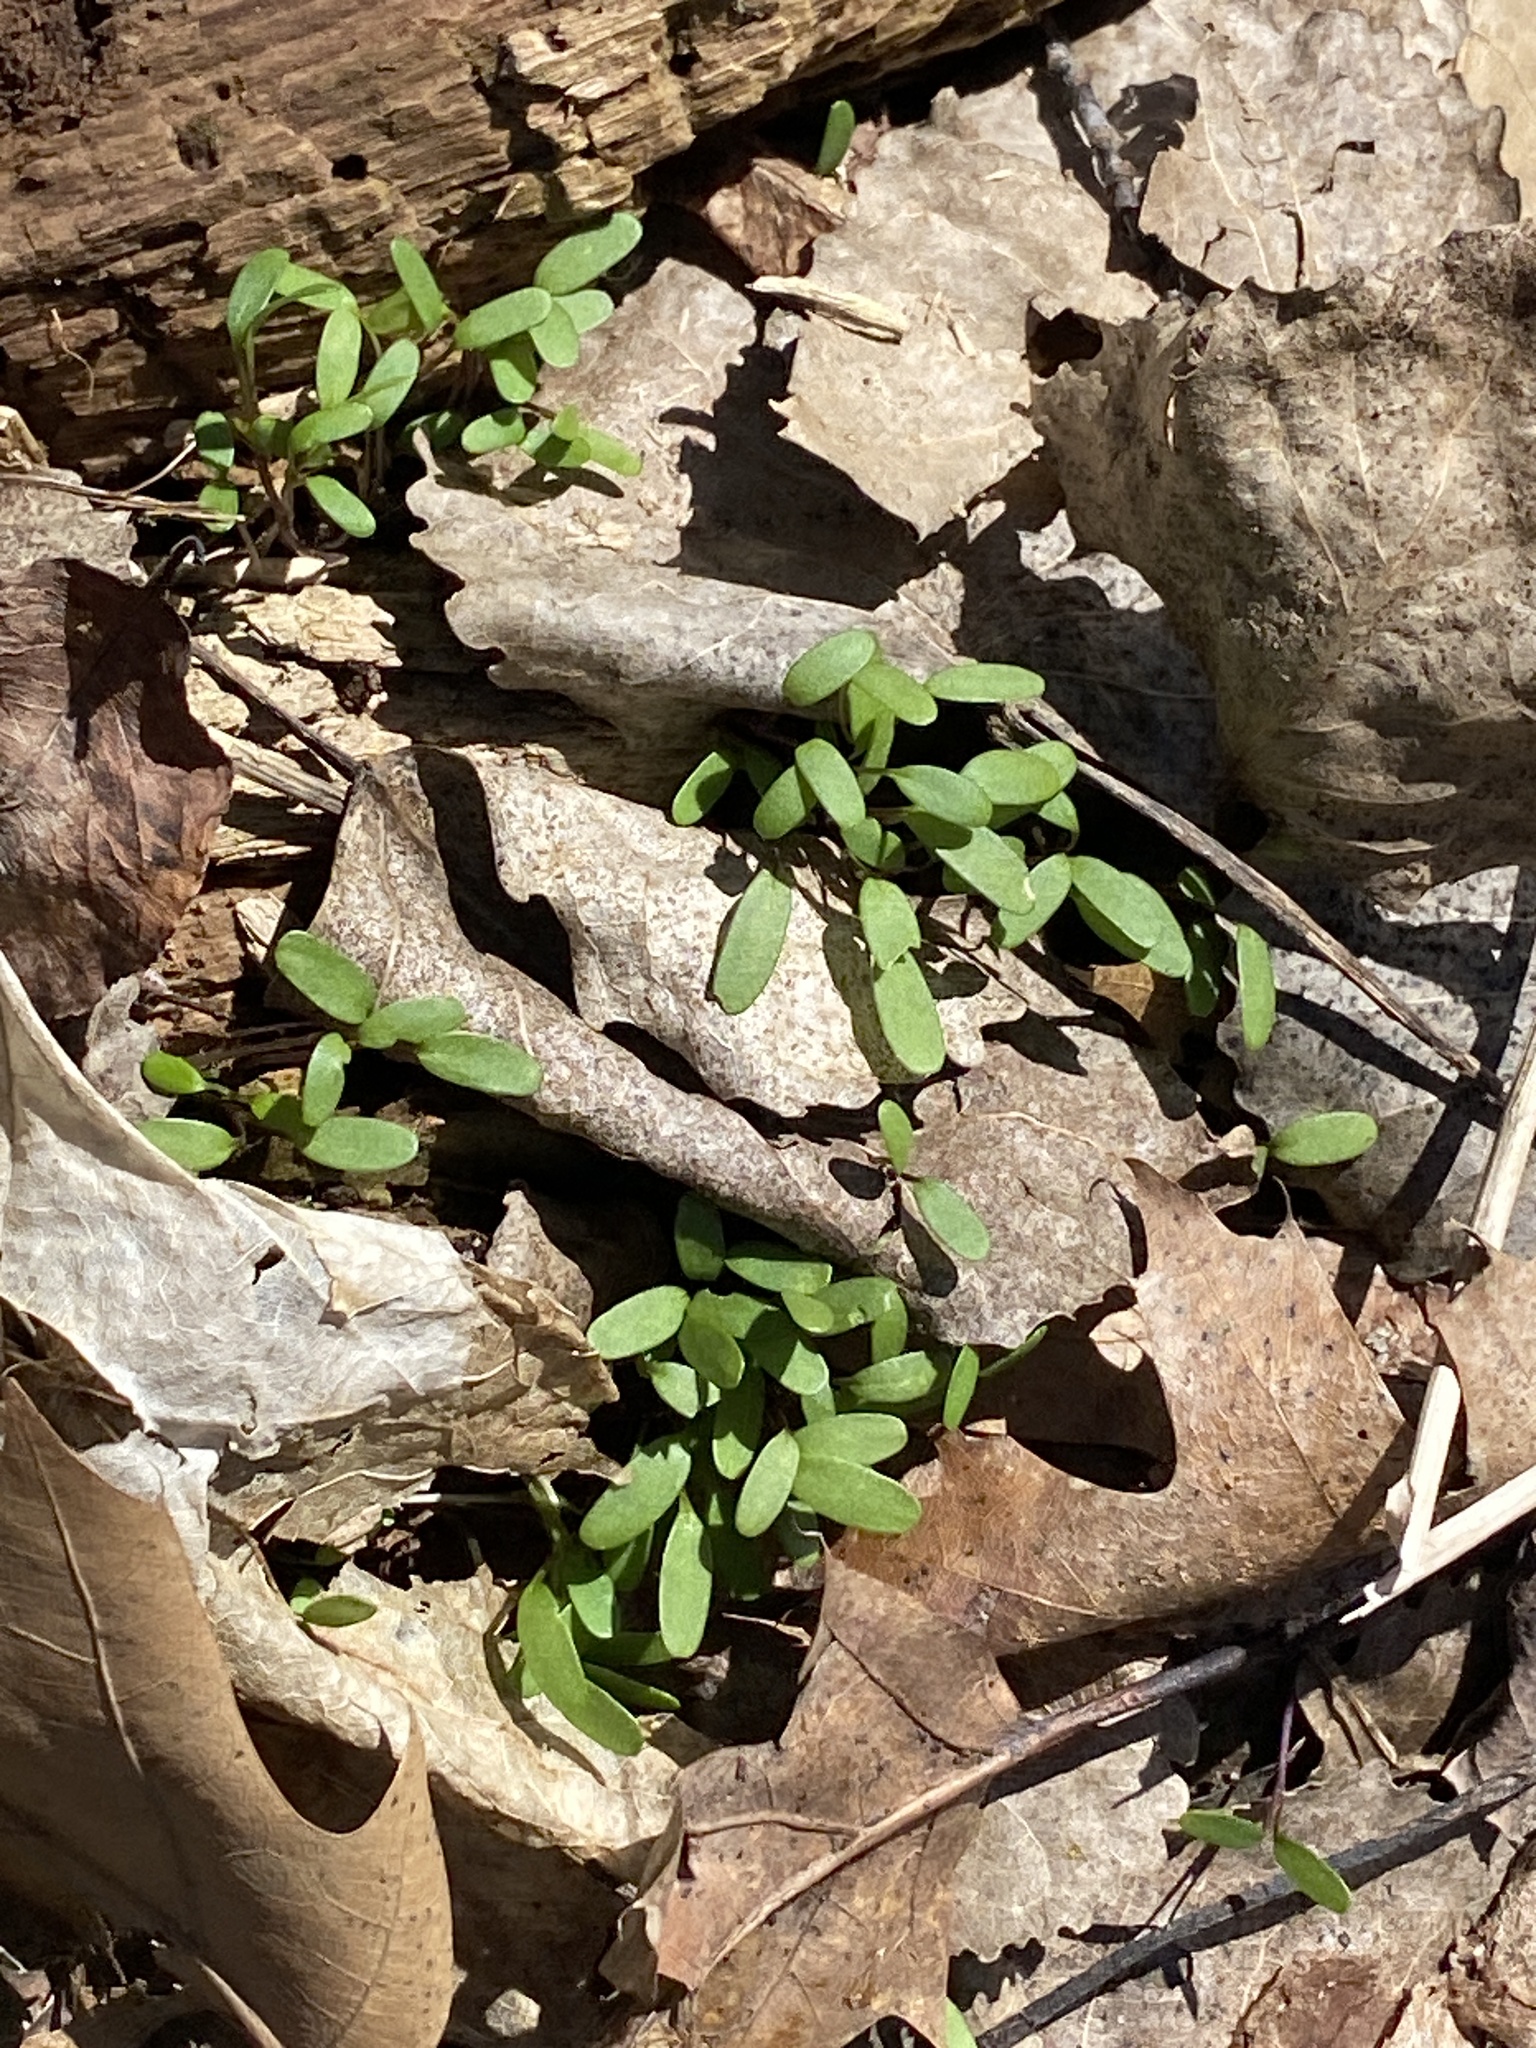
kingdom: Plantae
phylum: Tracheophyta
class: Magnoliopsida
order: Brassicales
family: Brassicaceae
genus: Alliaria
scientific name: Alliaria petiolata
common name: Garlic mustard
